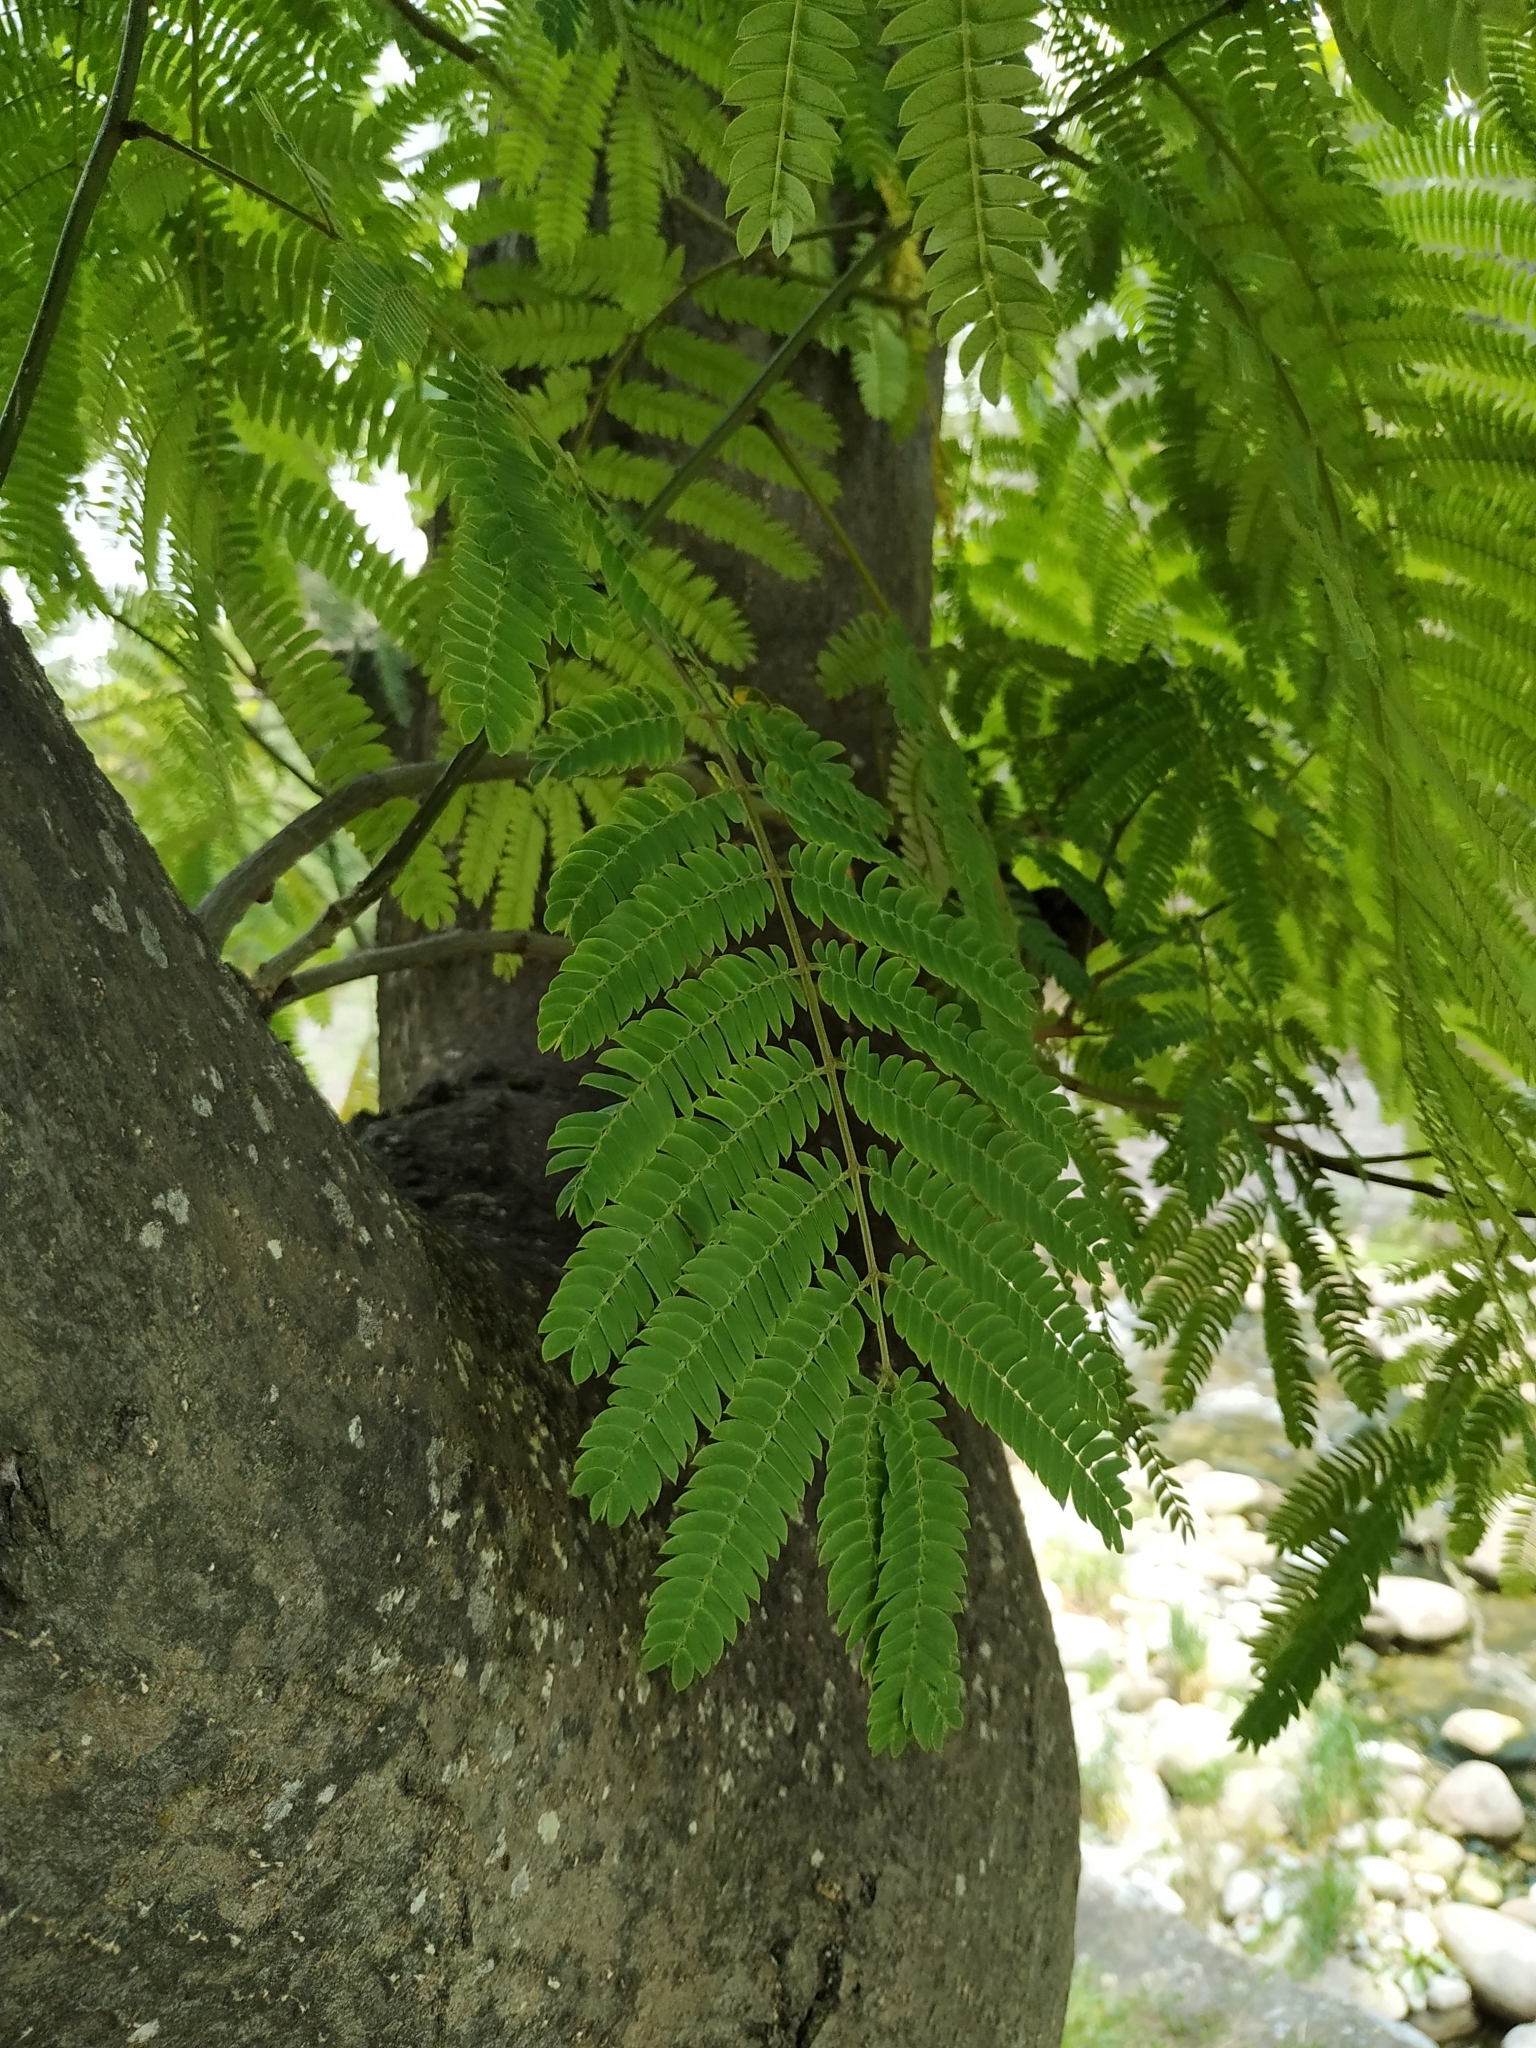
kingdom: Plantae
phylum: Tracheophyta
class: Magnoliopsida
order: Fabales
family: Fabaceae
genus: Albizia
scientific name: Albizia julibrissin
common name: Silktree
